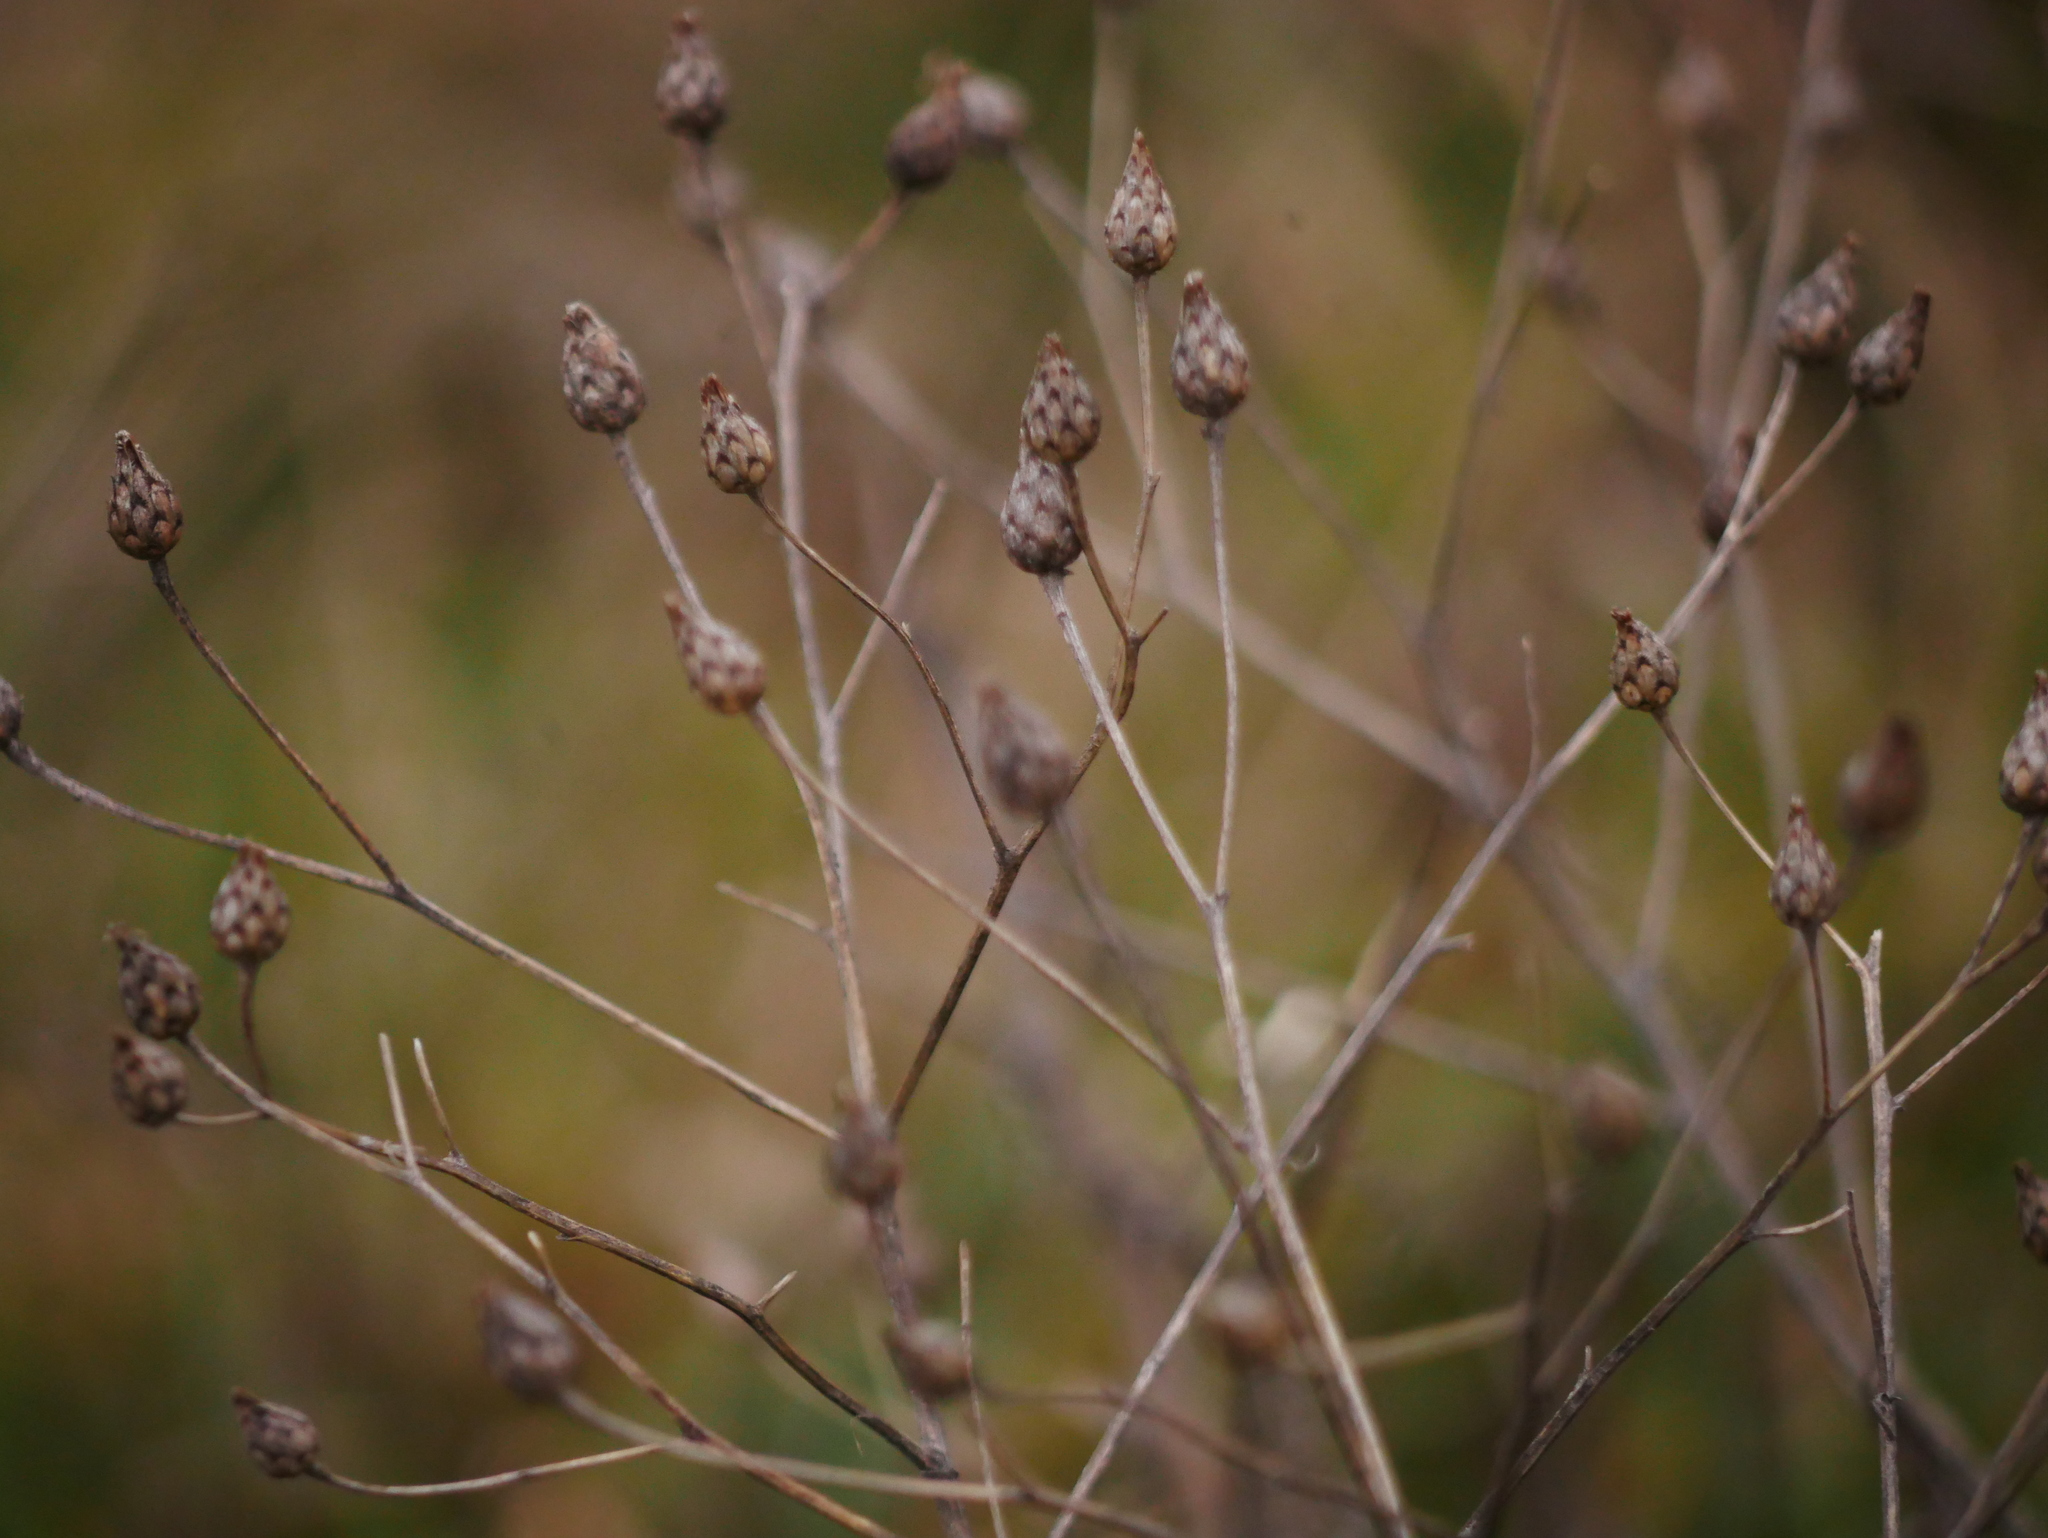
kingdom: Plantae
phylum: Tracheophyta
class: Magnoliopsida
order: Asterales
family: Asteraceae
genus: Centaurea
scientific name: Centaurea stoebe
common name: Spotted knapweed
